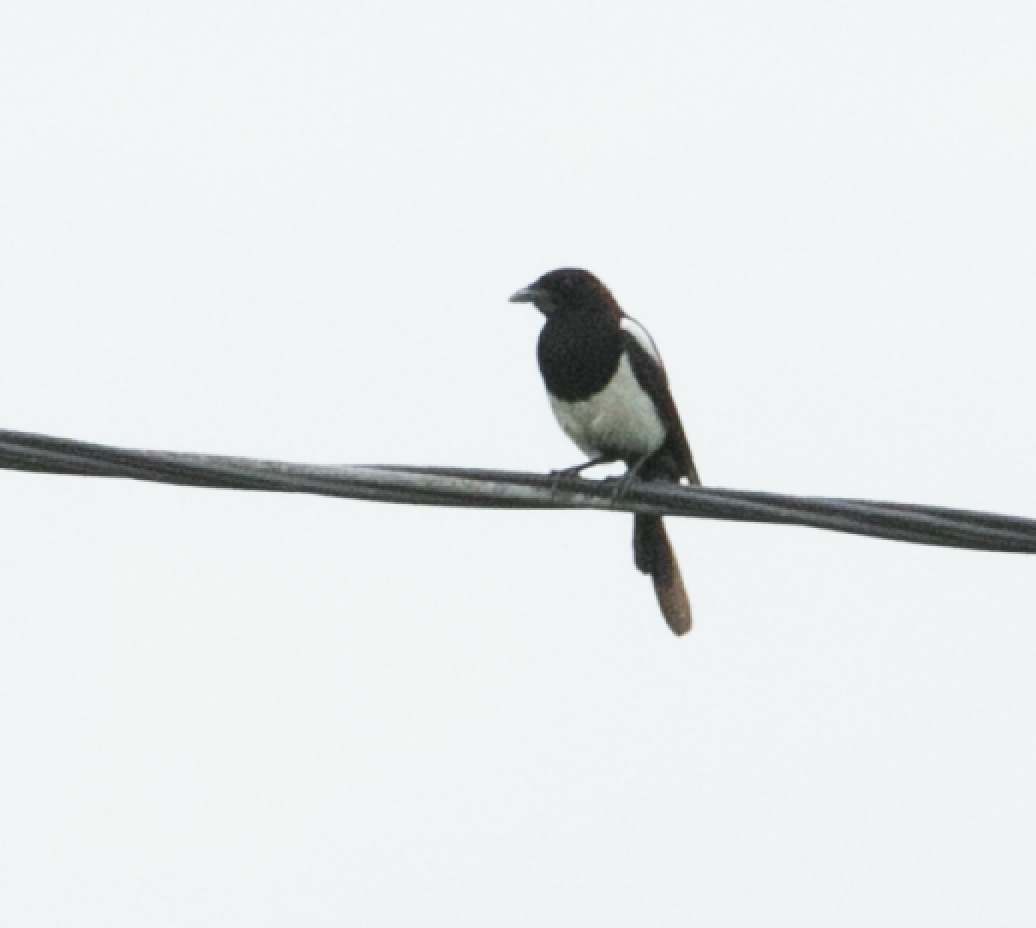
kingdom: Animalia
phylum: Chordata
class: Aves
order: Passeriformes
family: Corvidae
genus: Pica
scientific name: Pica pica
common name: Eurasian magpie
